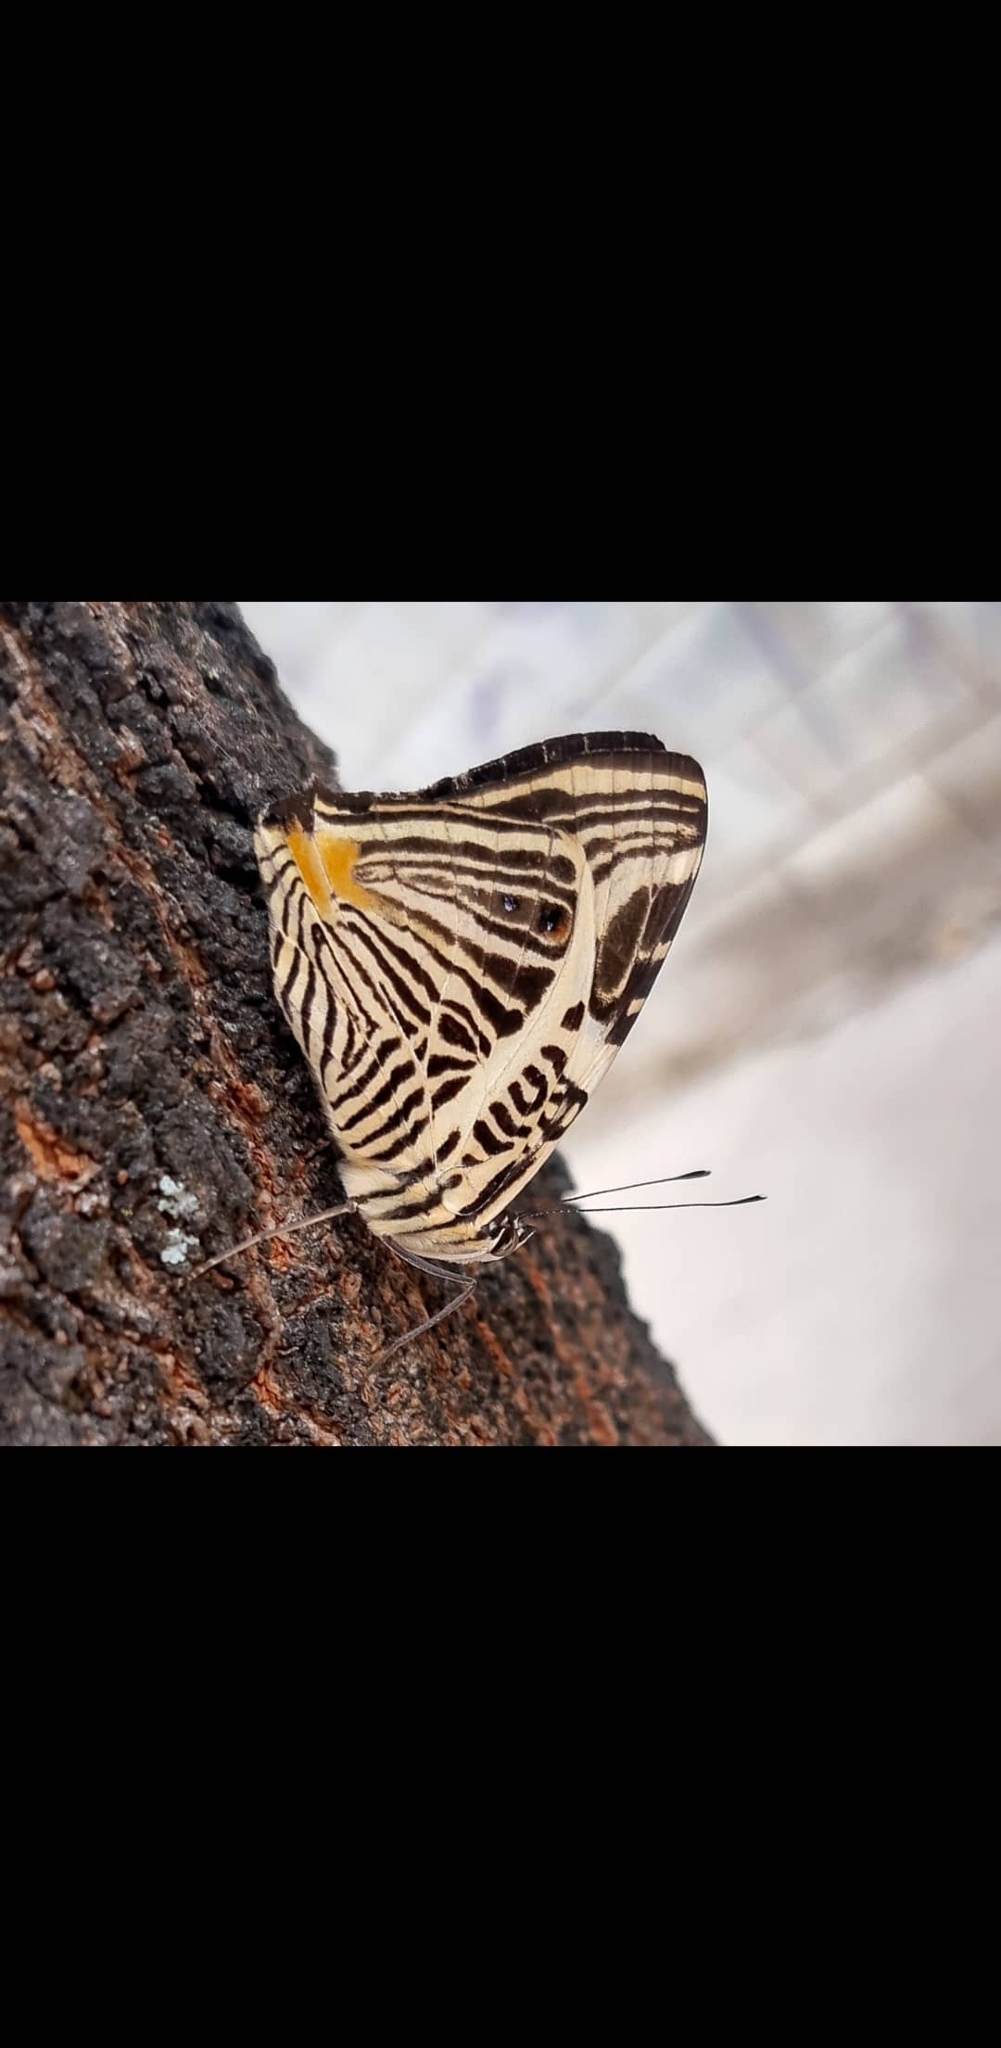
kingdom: Animalia
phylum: Arthropoda
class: Insecta
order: Lepidoptera
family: Nymphalidae
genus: Colobura
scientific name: Colobura dirce
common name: Dirce beauty
